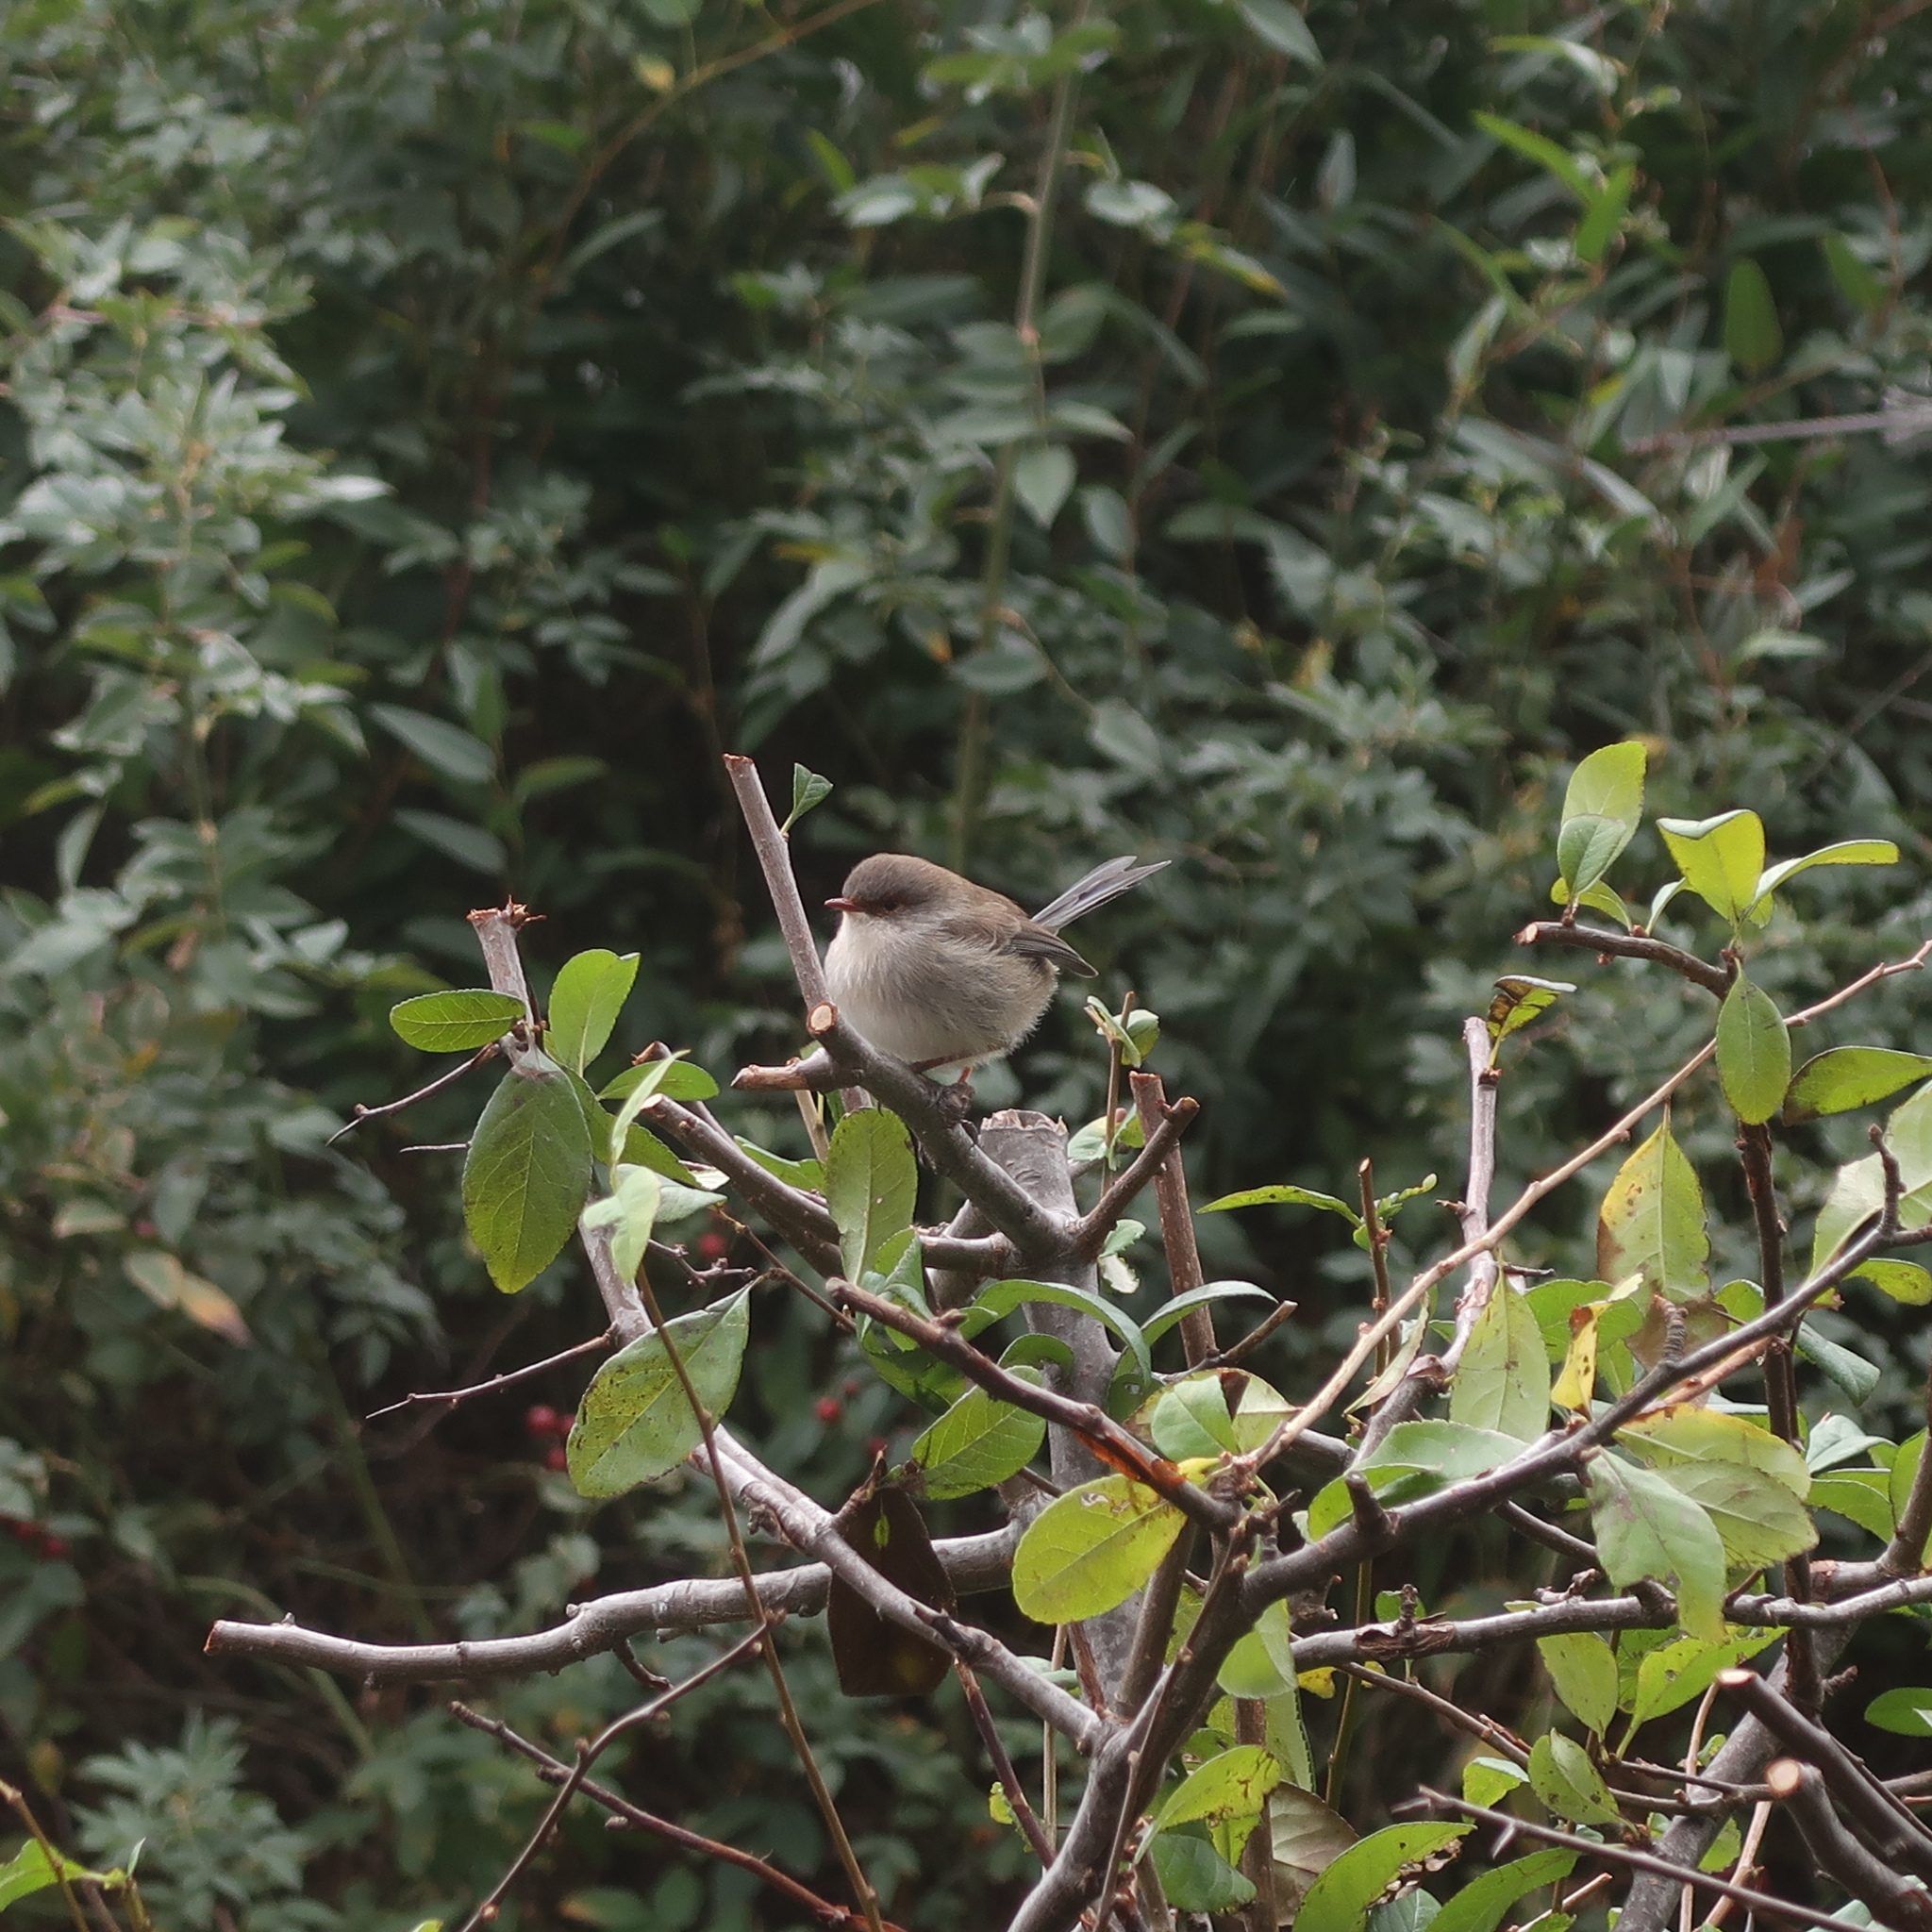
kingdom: Animalia
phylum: Chordata
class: Aves
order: Passeriformes
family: Maluridae
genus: Malurus
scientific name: Malurus cyaneus
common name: Superb fairywren
